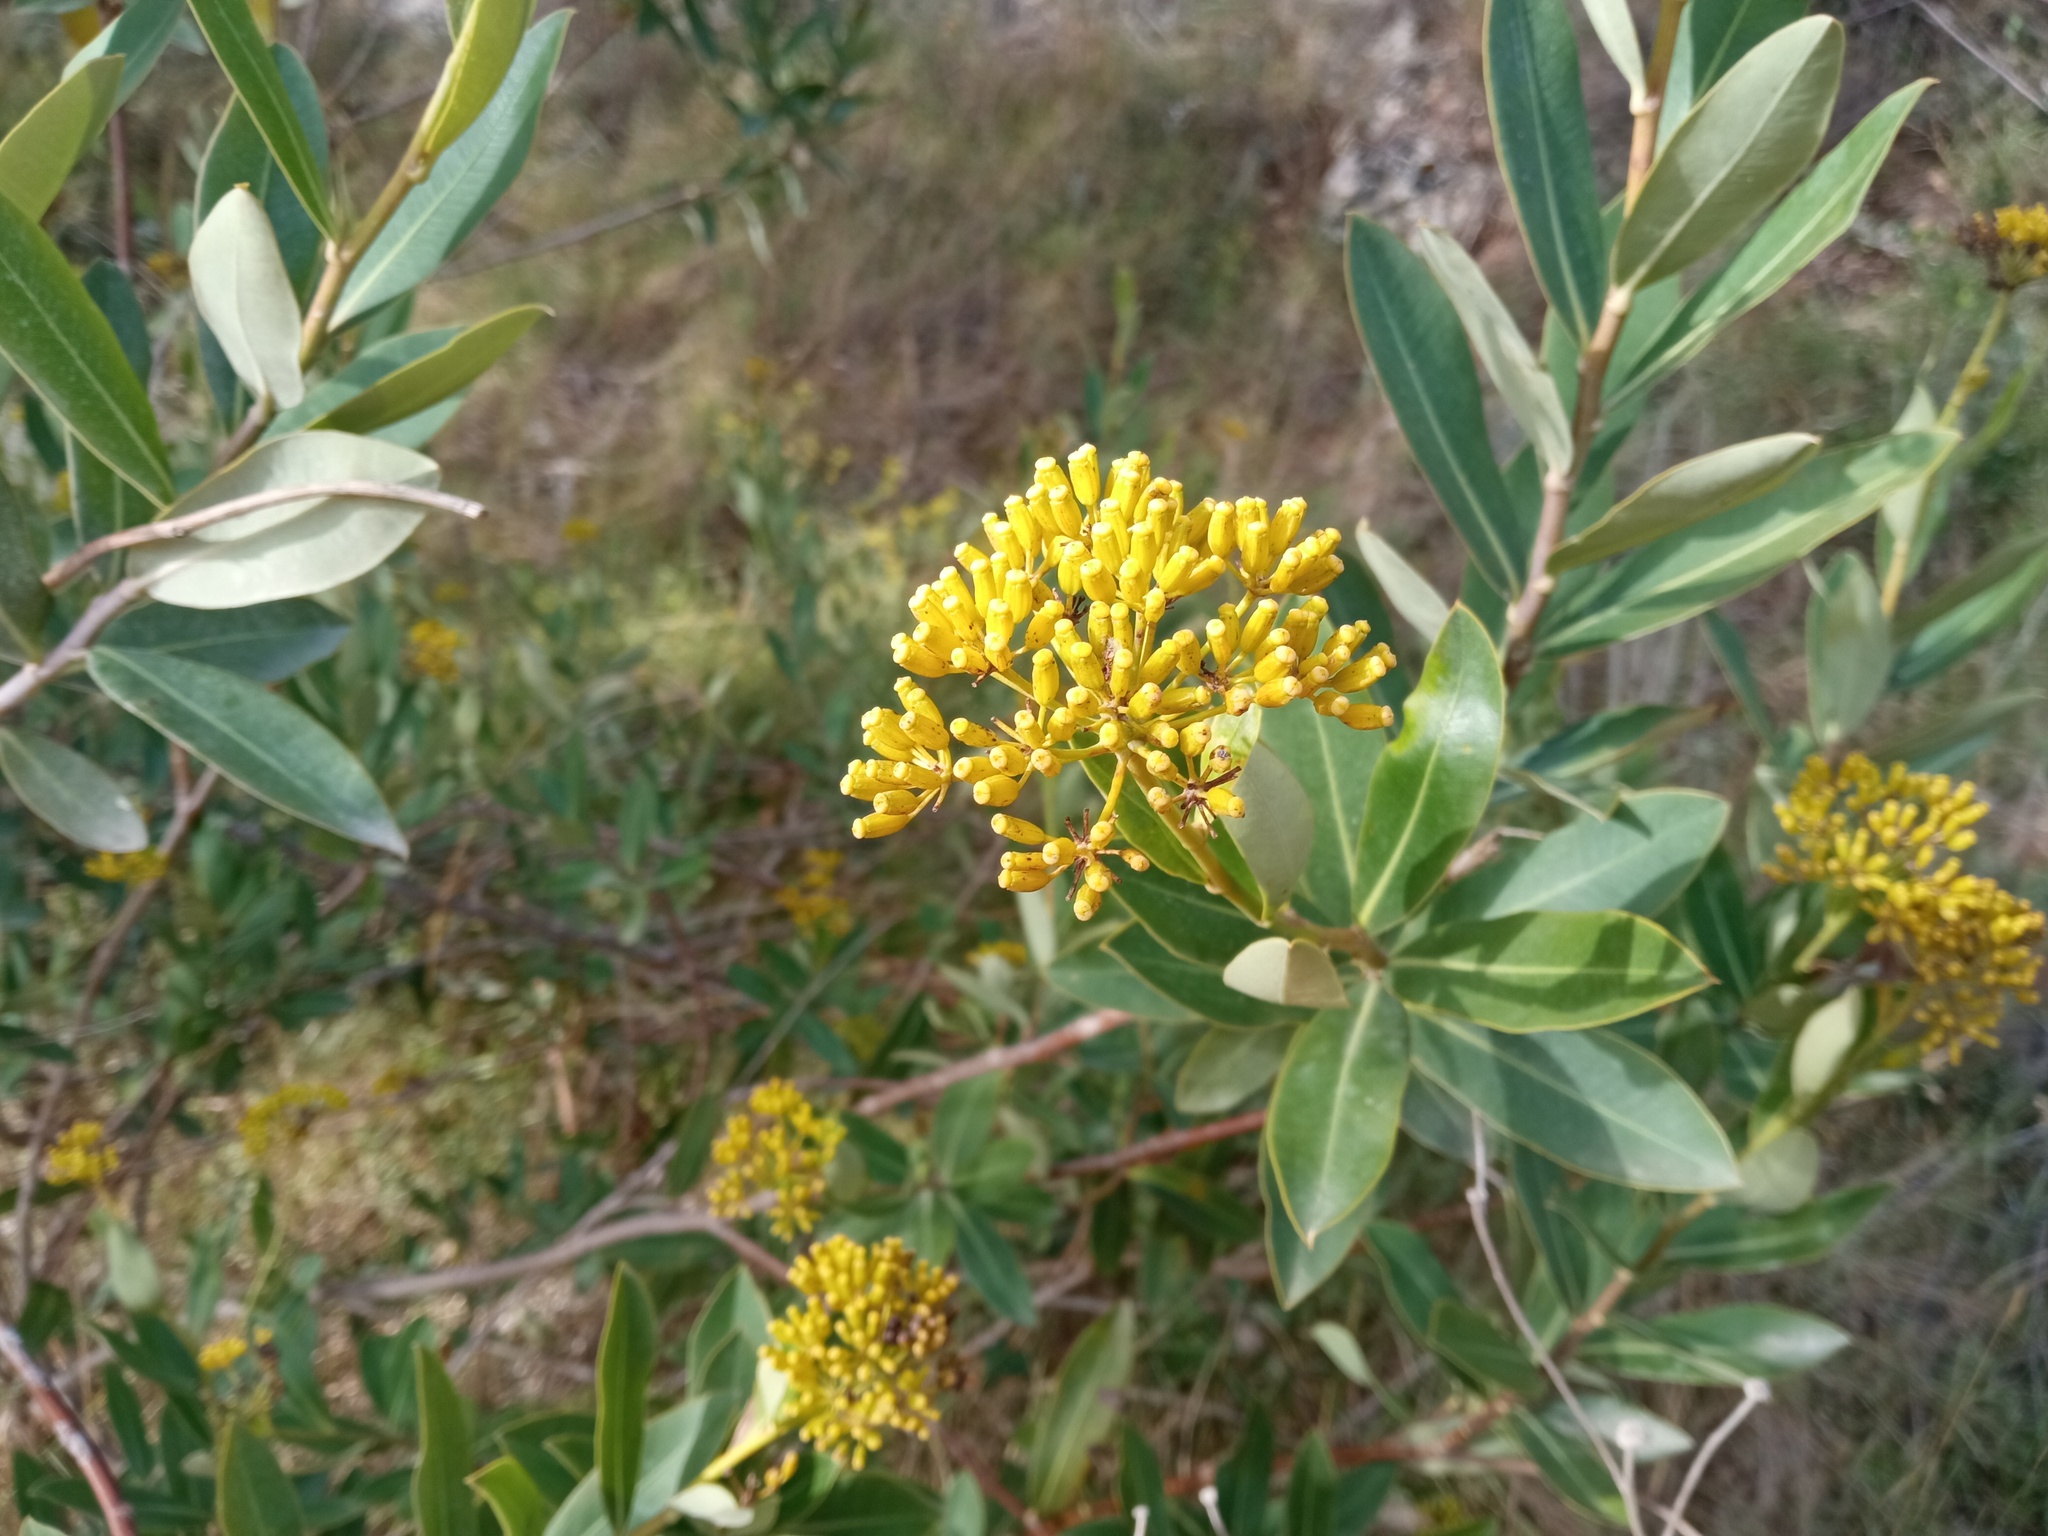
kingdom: Plantae
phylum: Tracheophyta
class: Magnoliopsida
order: Apiales
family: Apiaceae
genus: Bupleurum
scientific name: Bupleurum fruticosum
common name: Shrubby hare's-ear
